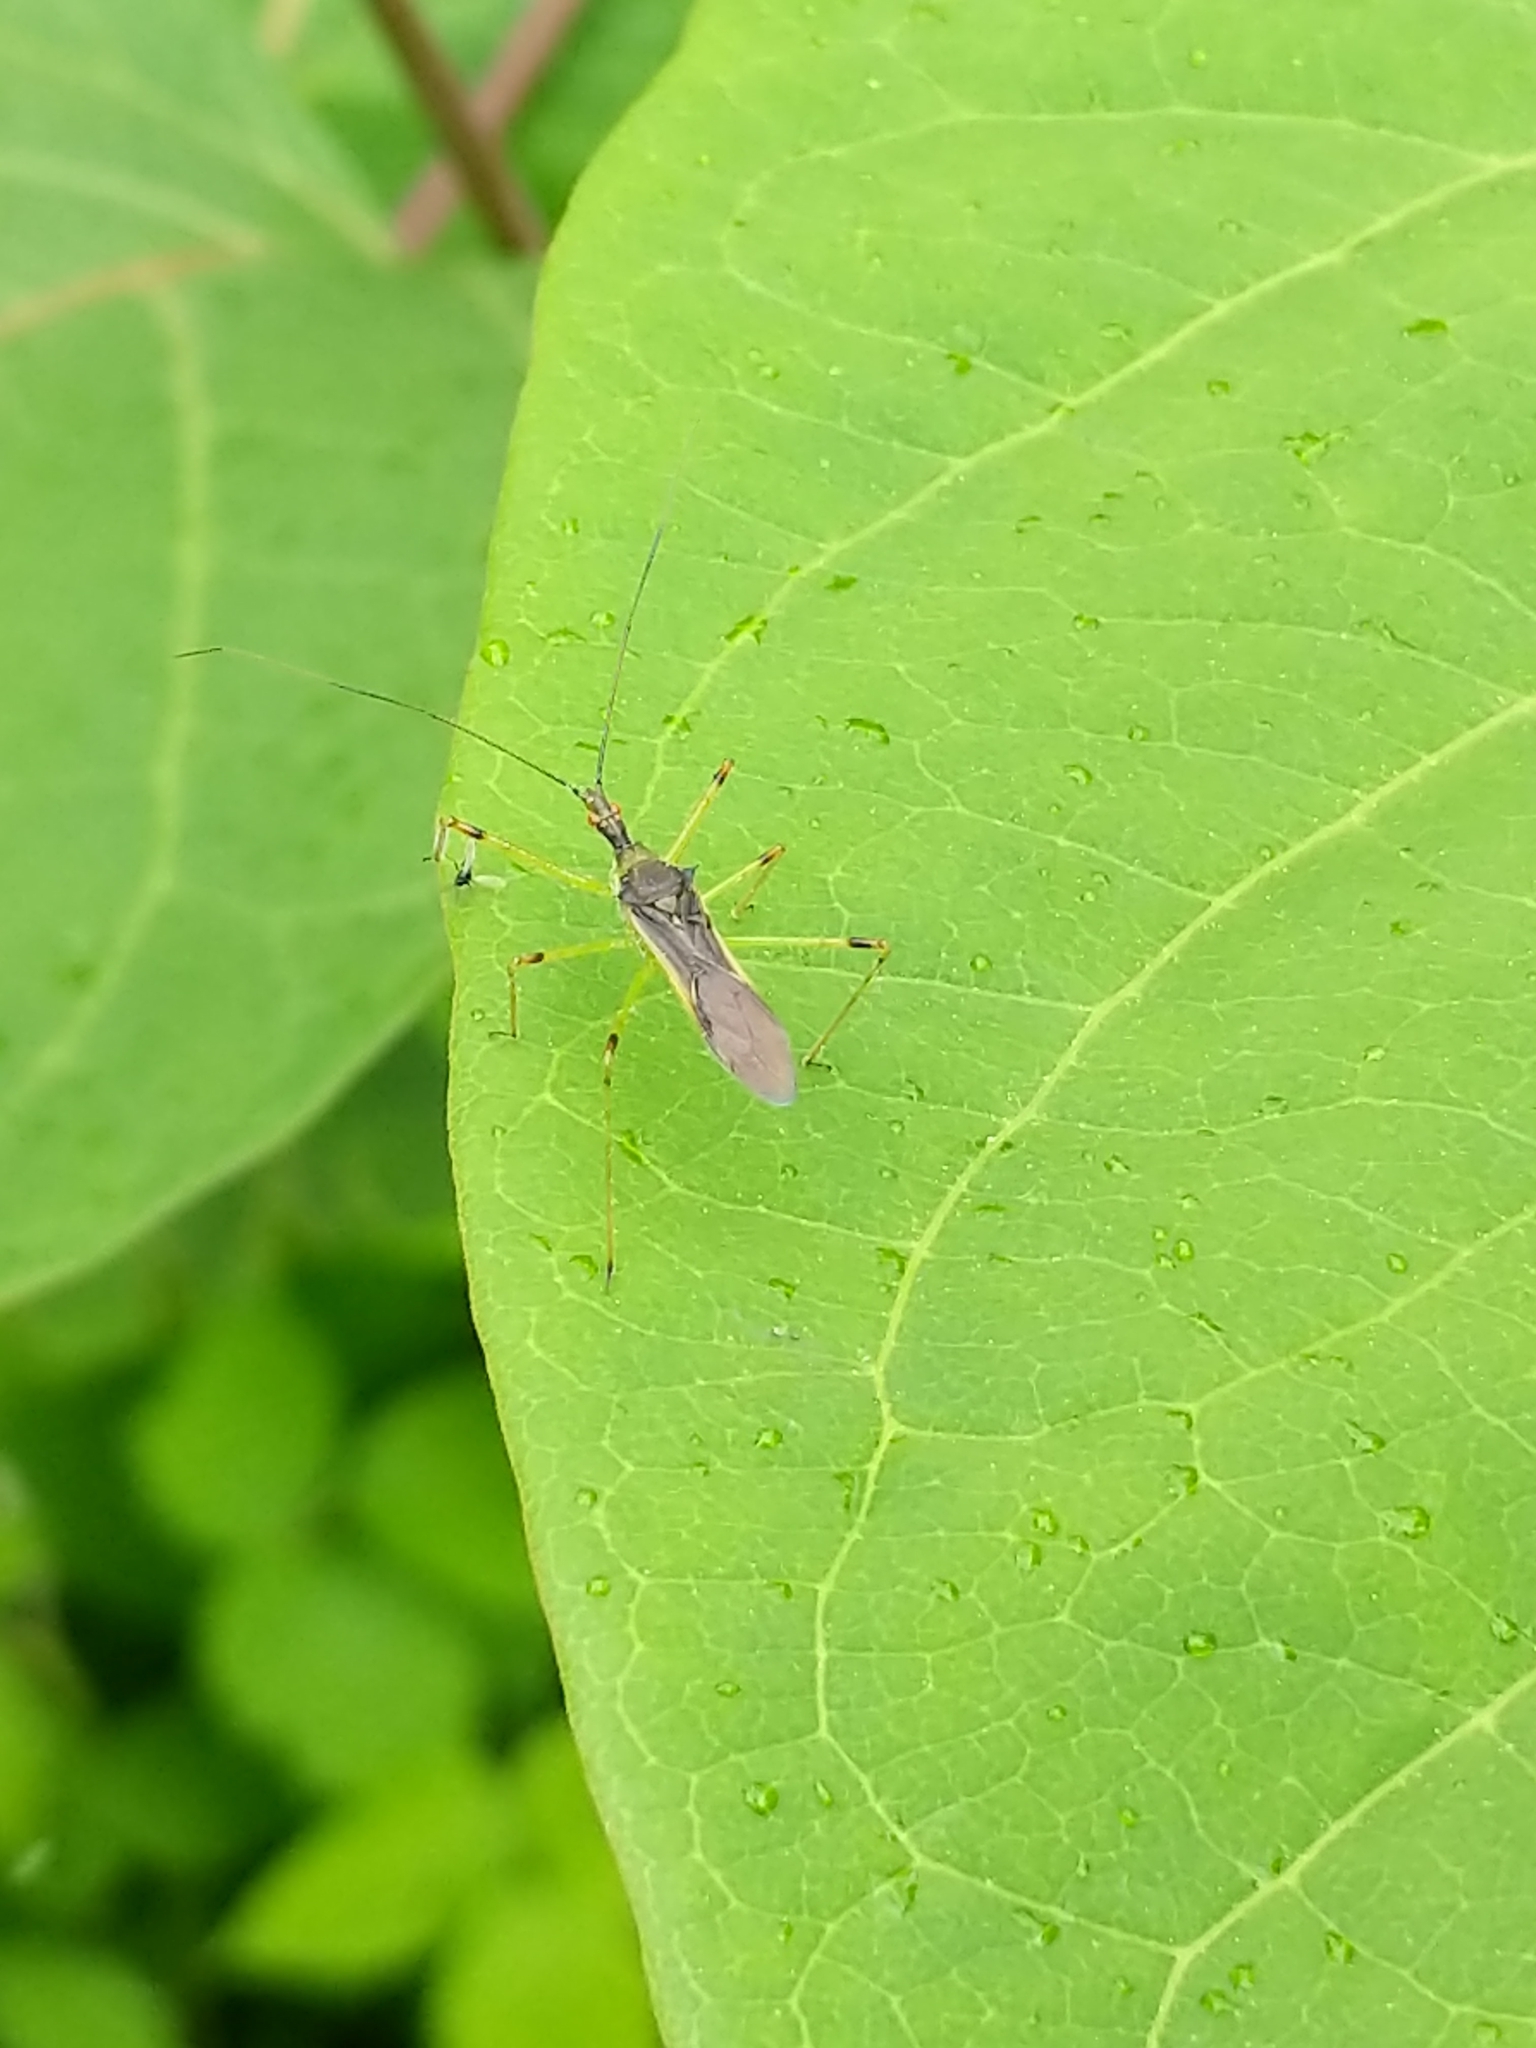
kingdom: Animalia
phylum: Arthropoda
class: Insecta
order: Hemiptera
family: Reduviidae
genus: Zelus
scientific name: Zelus luridus
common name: Pale green assassin bug
